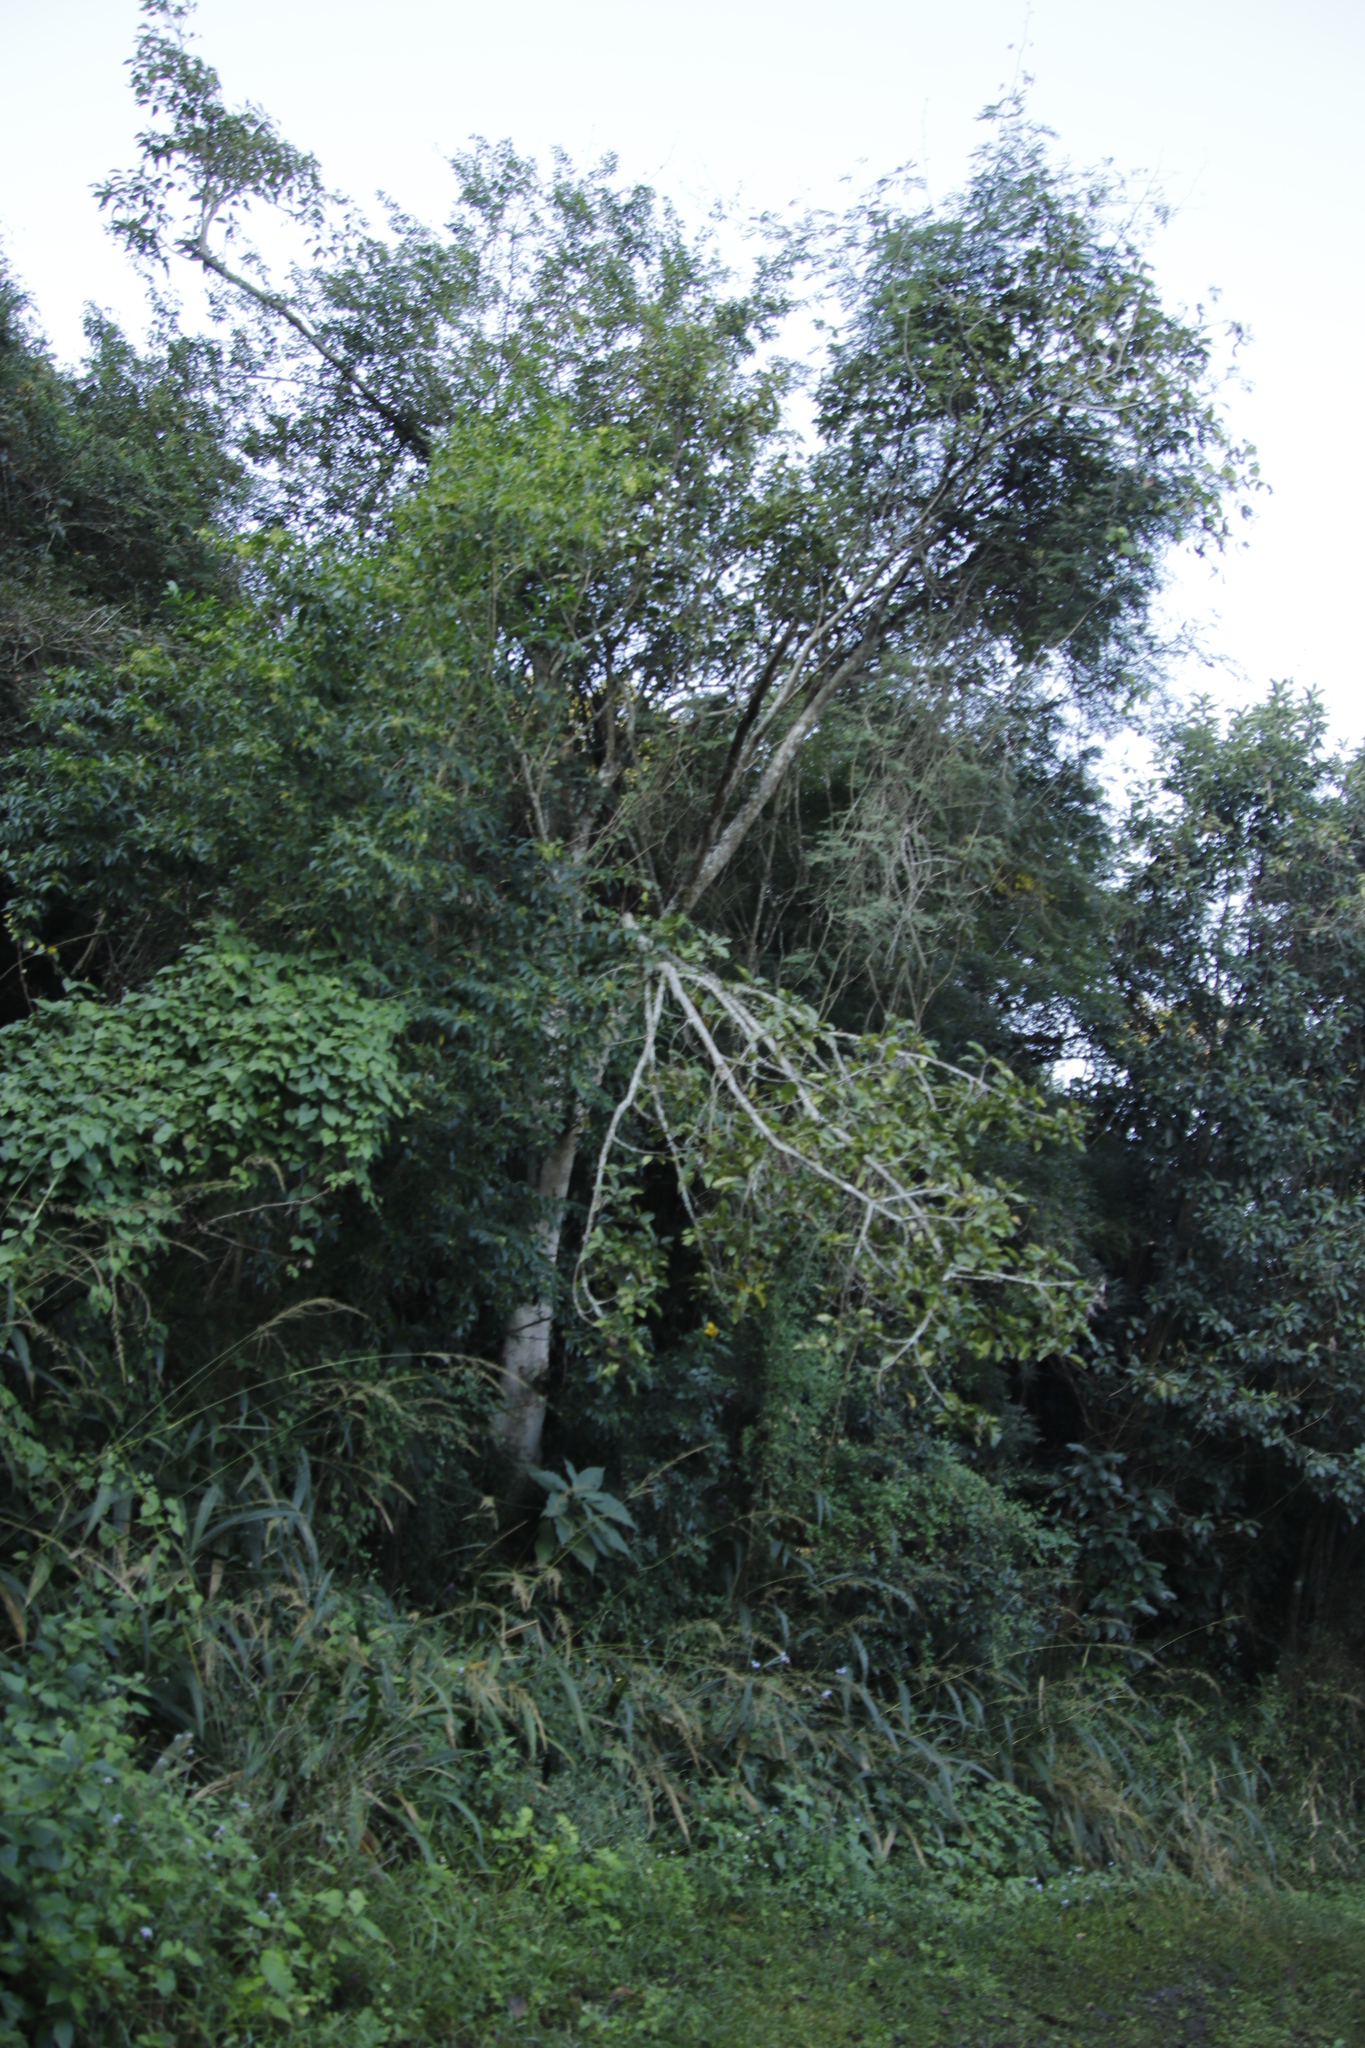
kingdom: Plantae
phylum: Tracheophyta
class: Magnoliopsida
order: Rosales
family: Moraceae
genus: Ficus
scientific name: Ficus sur
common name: Cape fig
